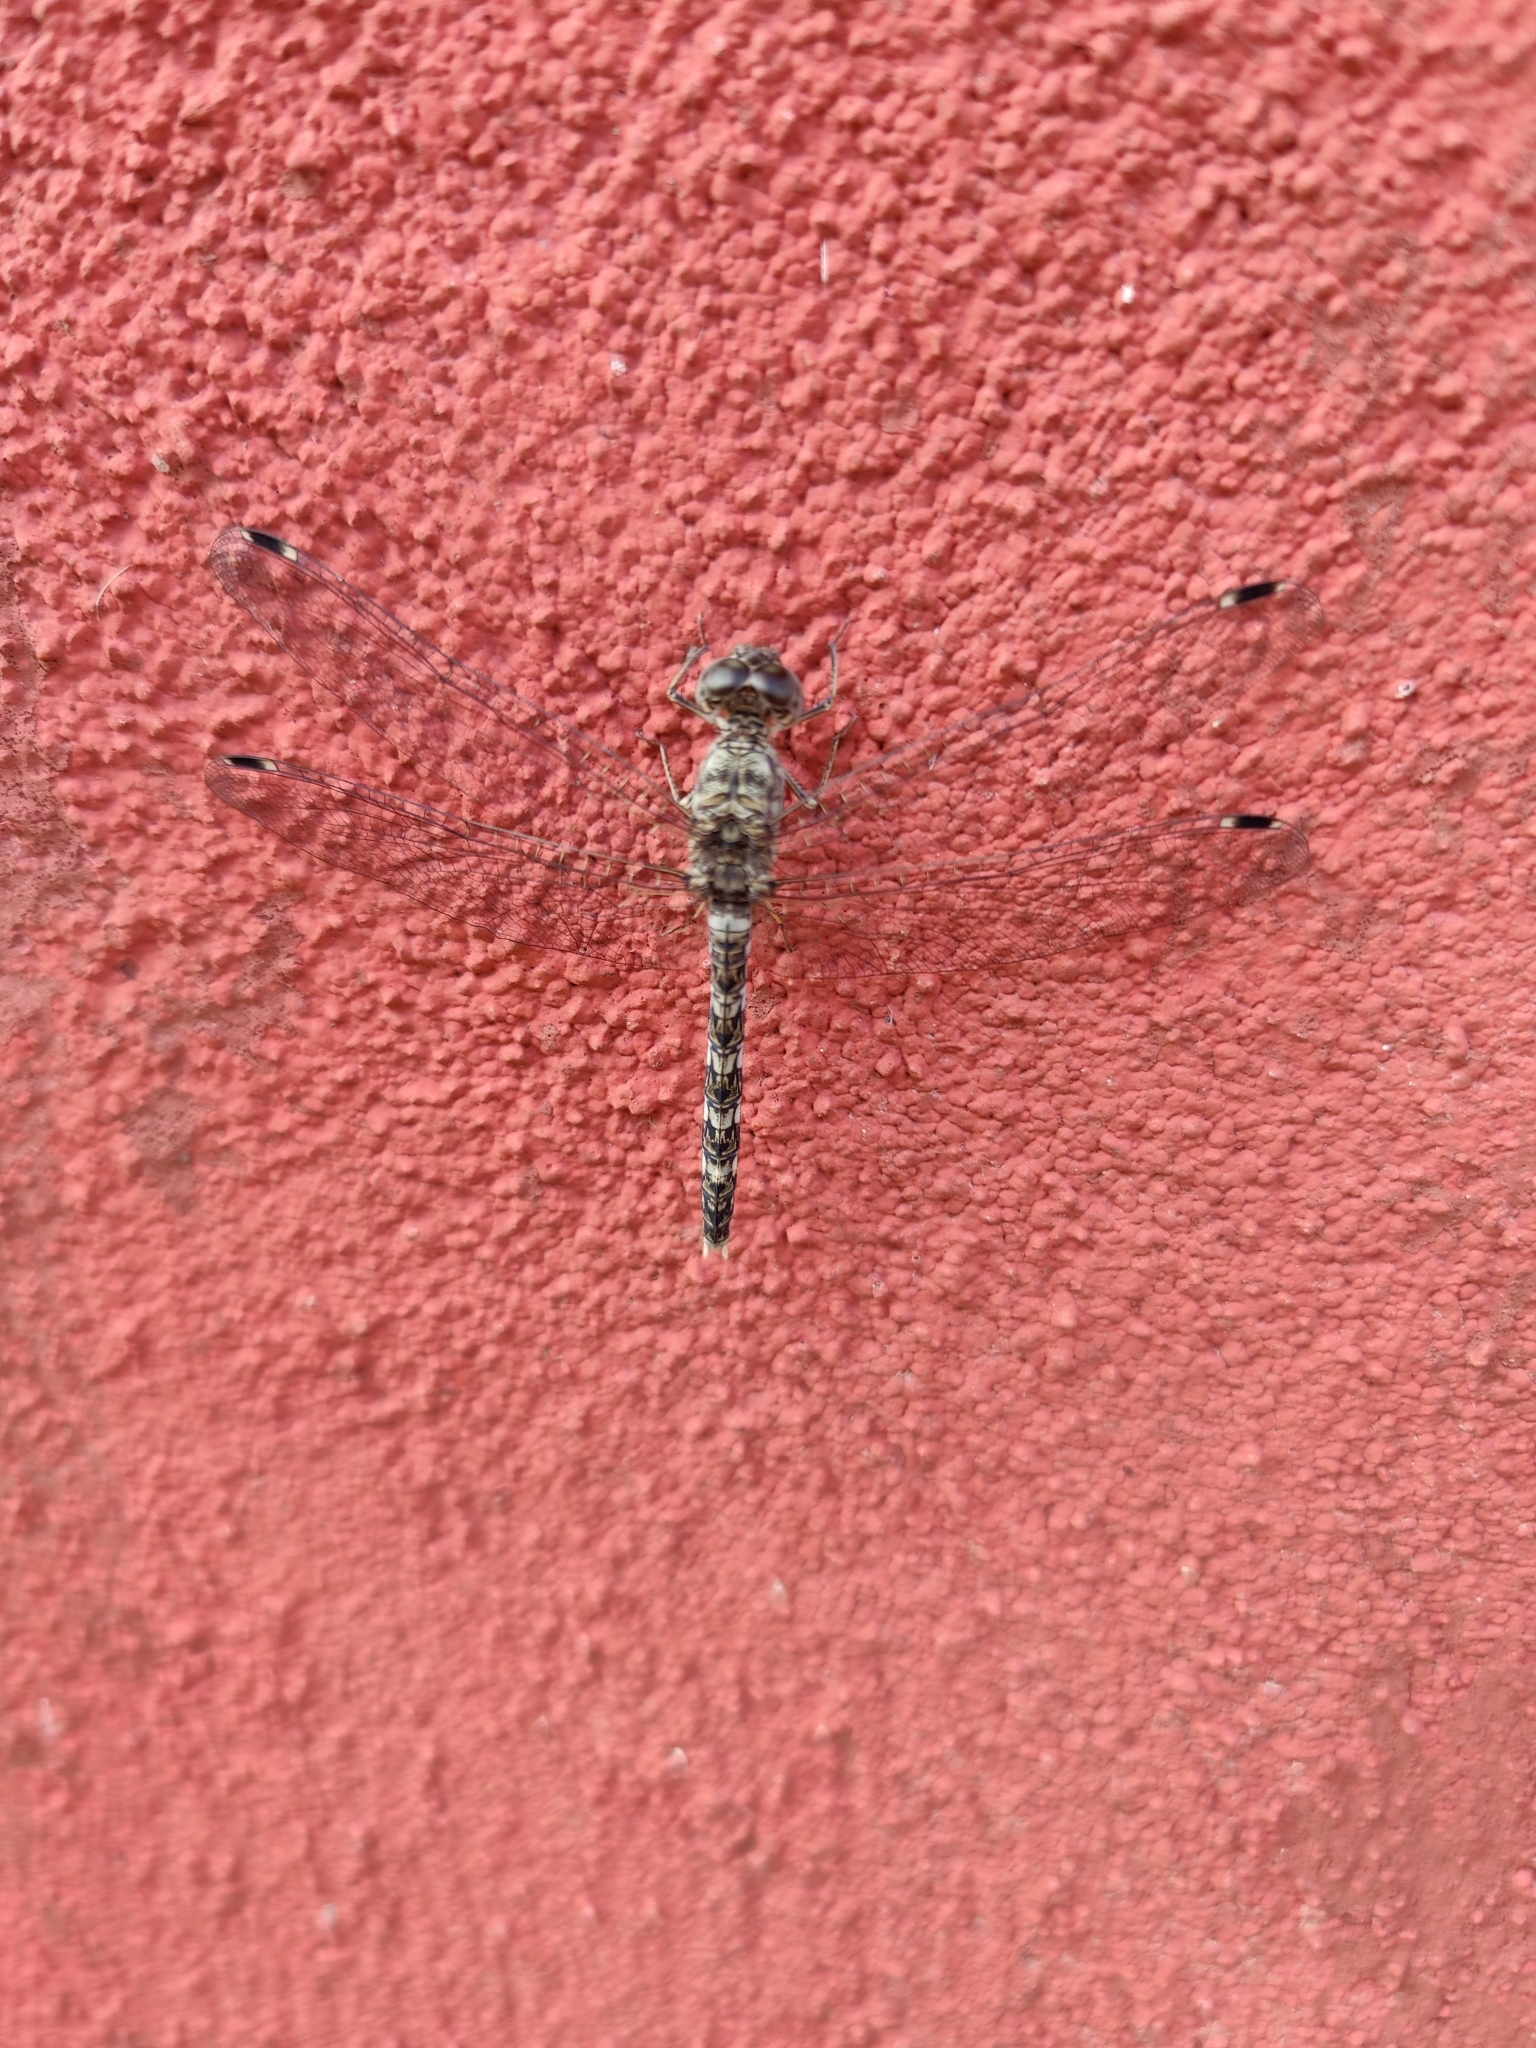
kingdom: Animalia
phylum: Arthropoda
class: Insecta
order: Odonata
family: Libellulidae
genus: Bradinopyga
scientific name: Bradinopyga geminata
